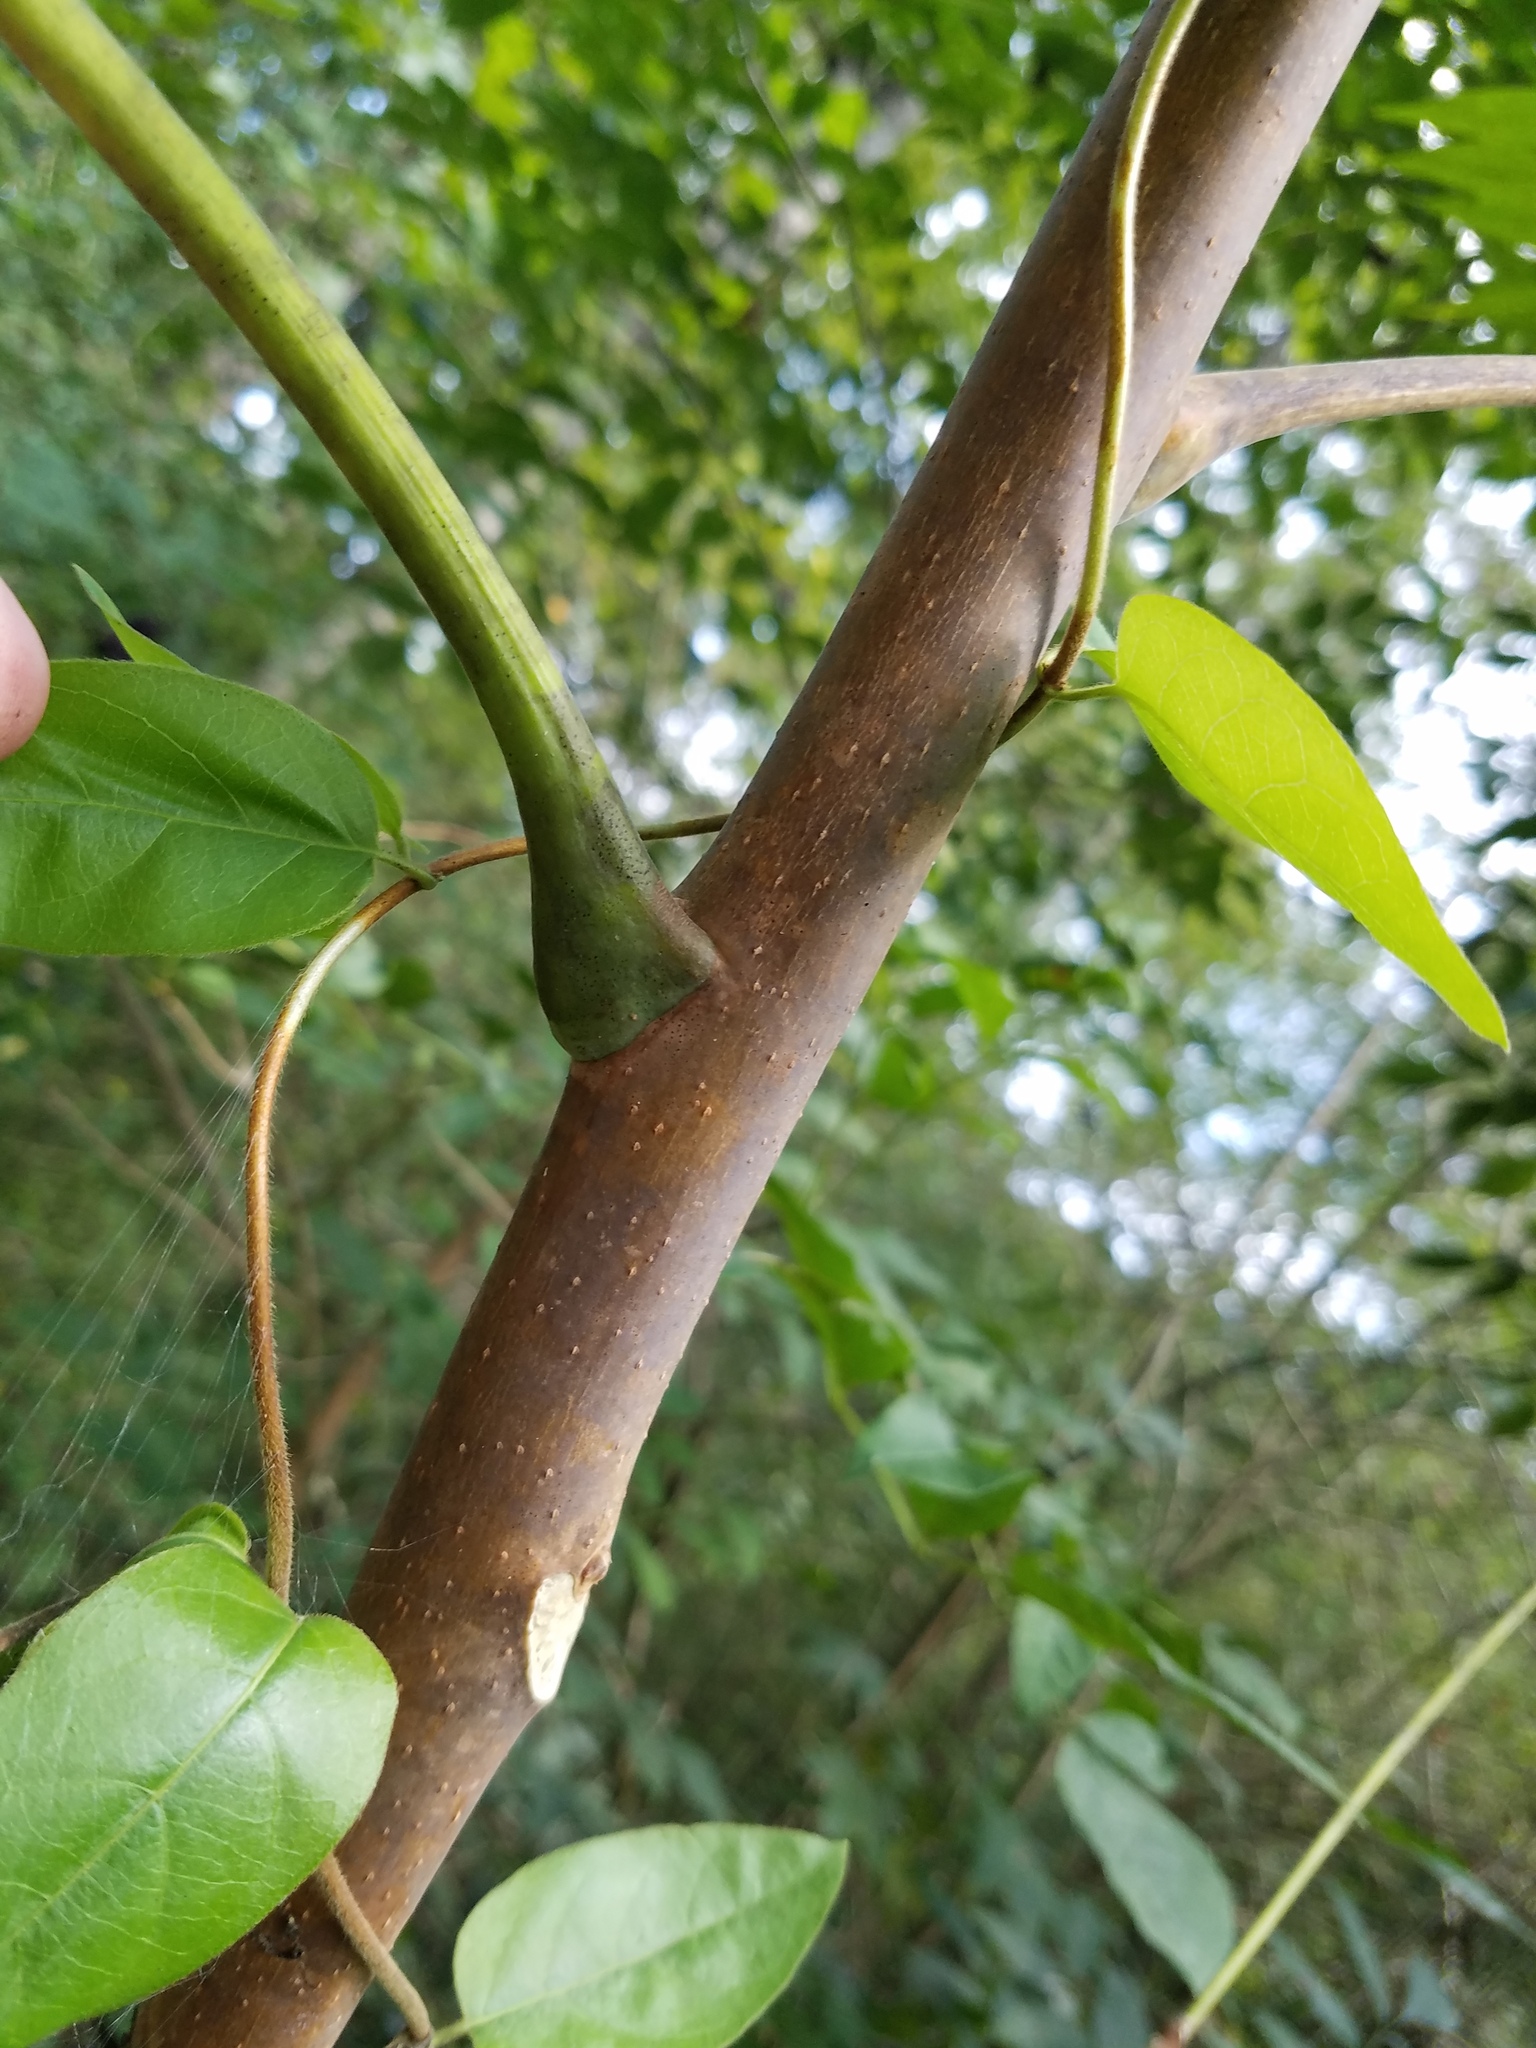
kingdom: Plantae
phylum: Tracheophyta
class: Magnoliopsida
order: Sapindales
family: Simaroubaceae
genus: Ailanthus
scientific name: Ailanthus altissima
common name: Tree-of-heaven
